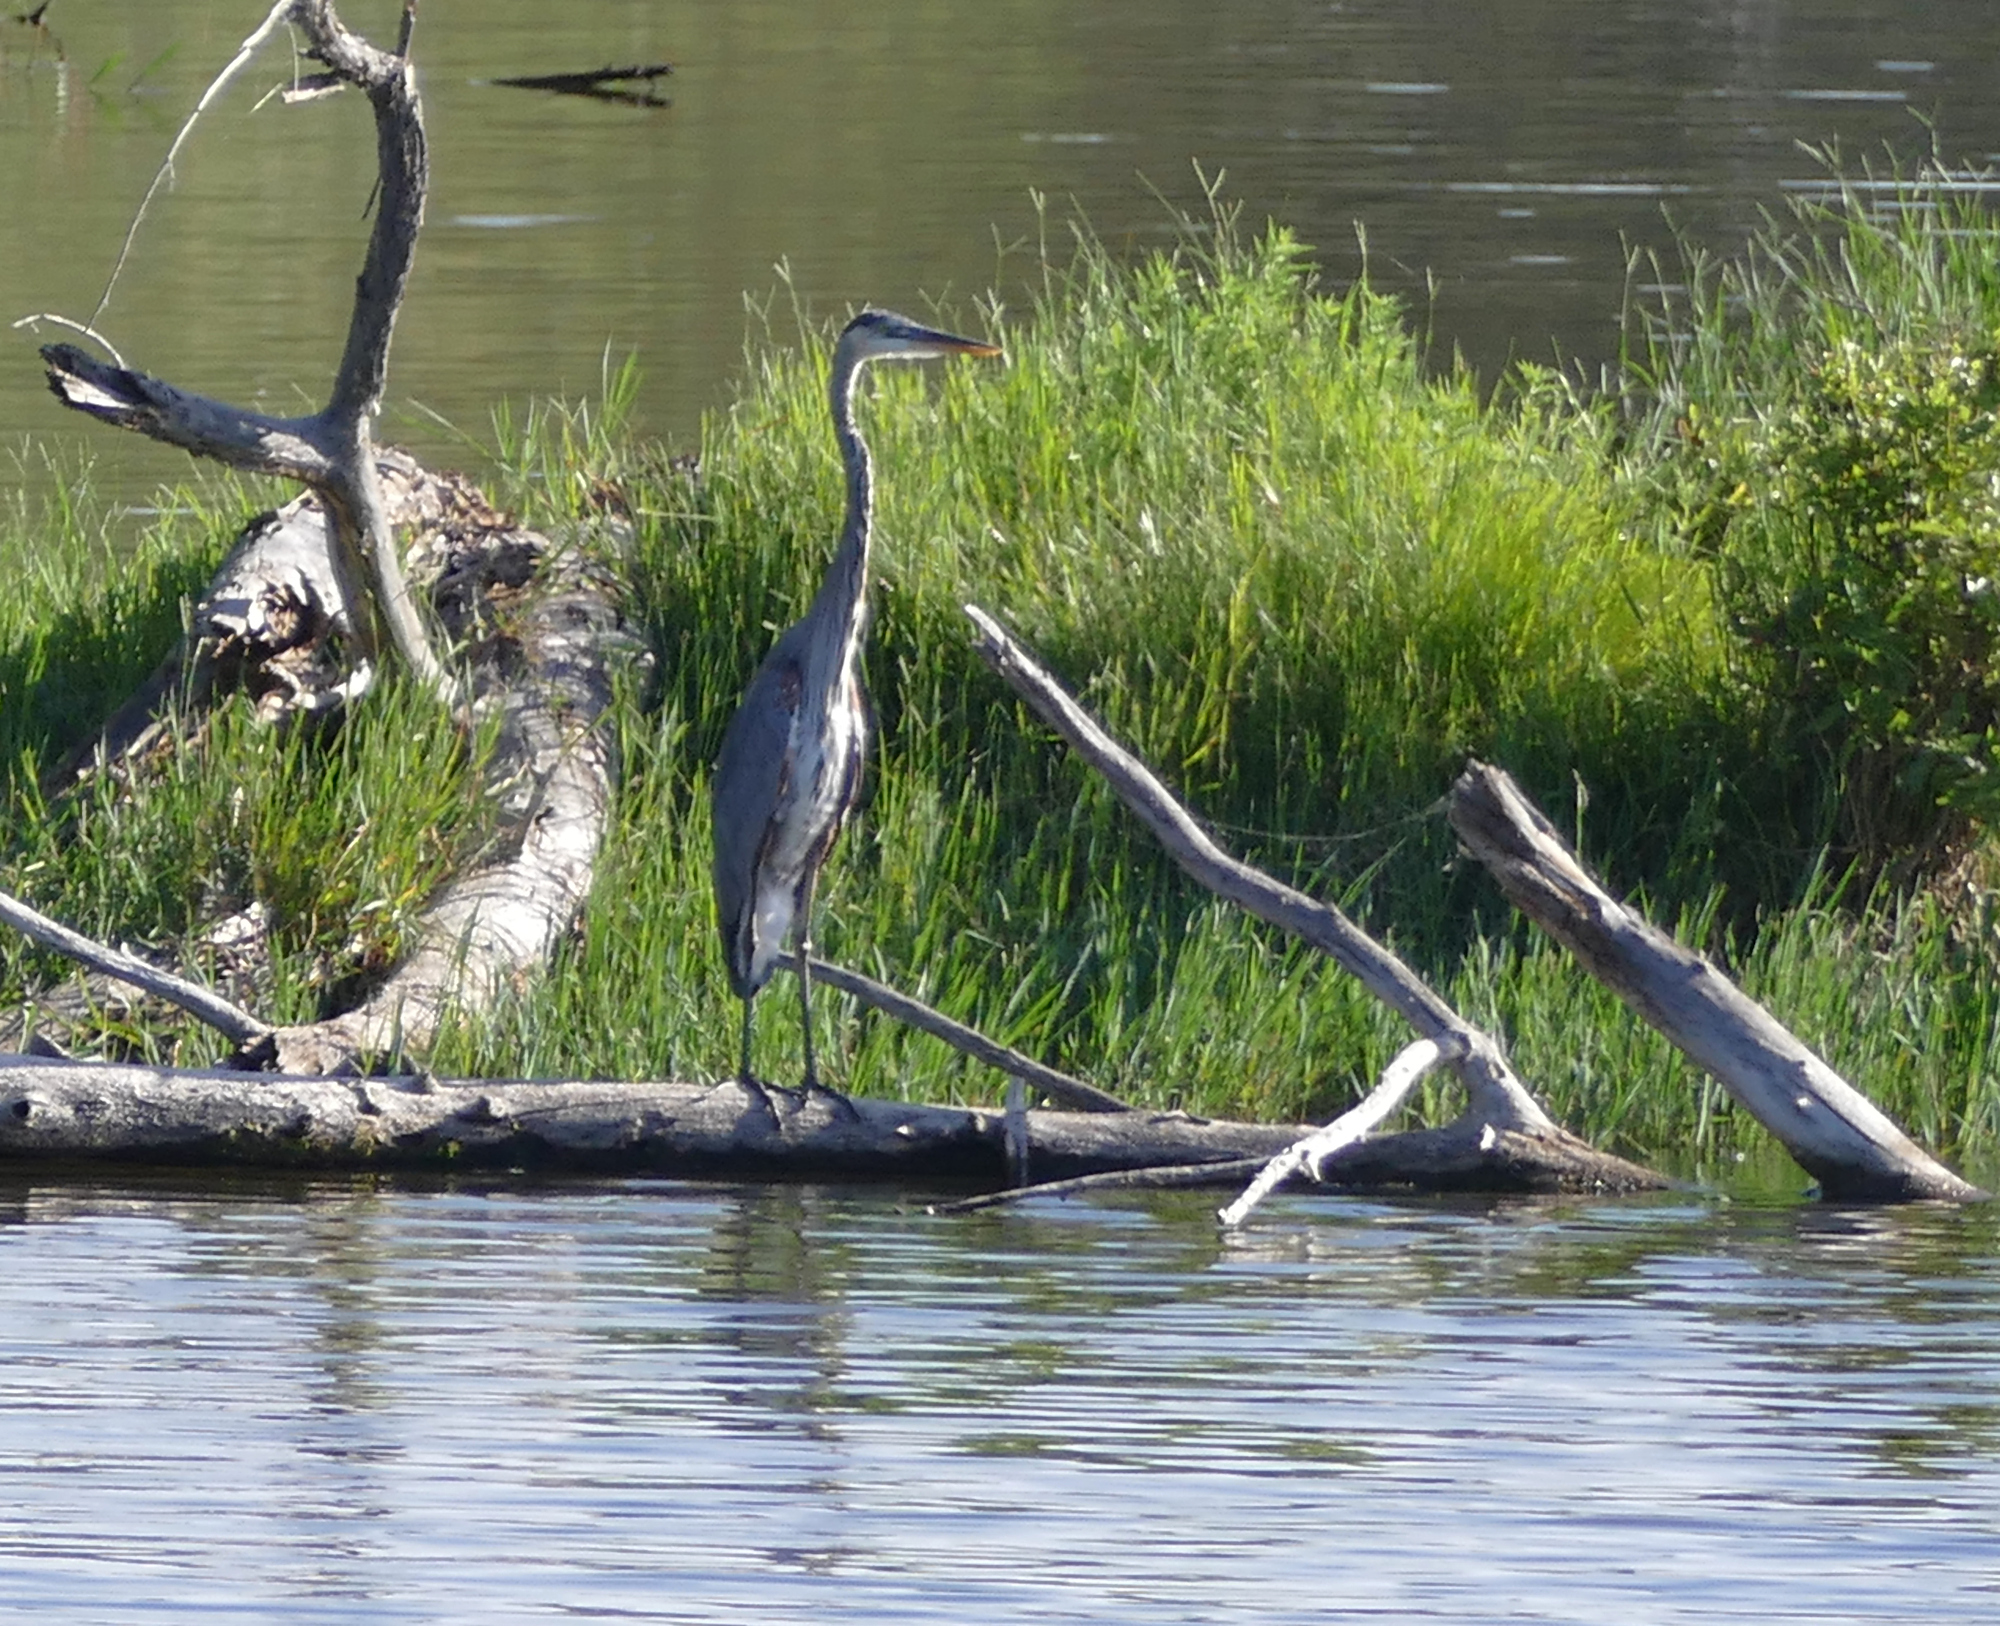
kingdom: Animalia
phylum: Chordata
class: Aves
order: Pelecaniformes
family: Ardeidae
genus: Ardea
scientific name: Ardea herodias
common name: Great blue heron
